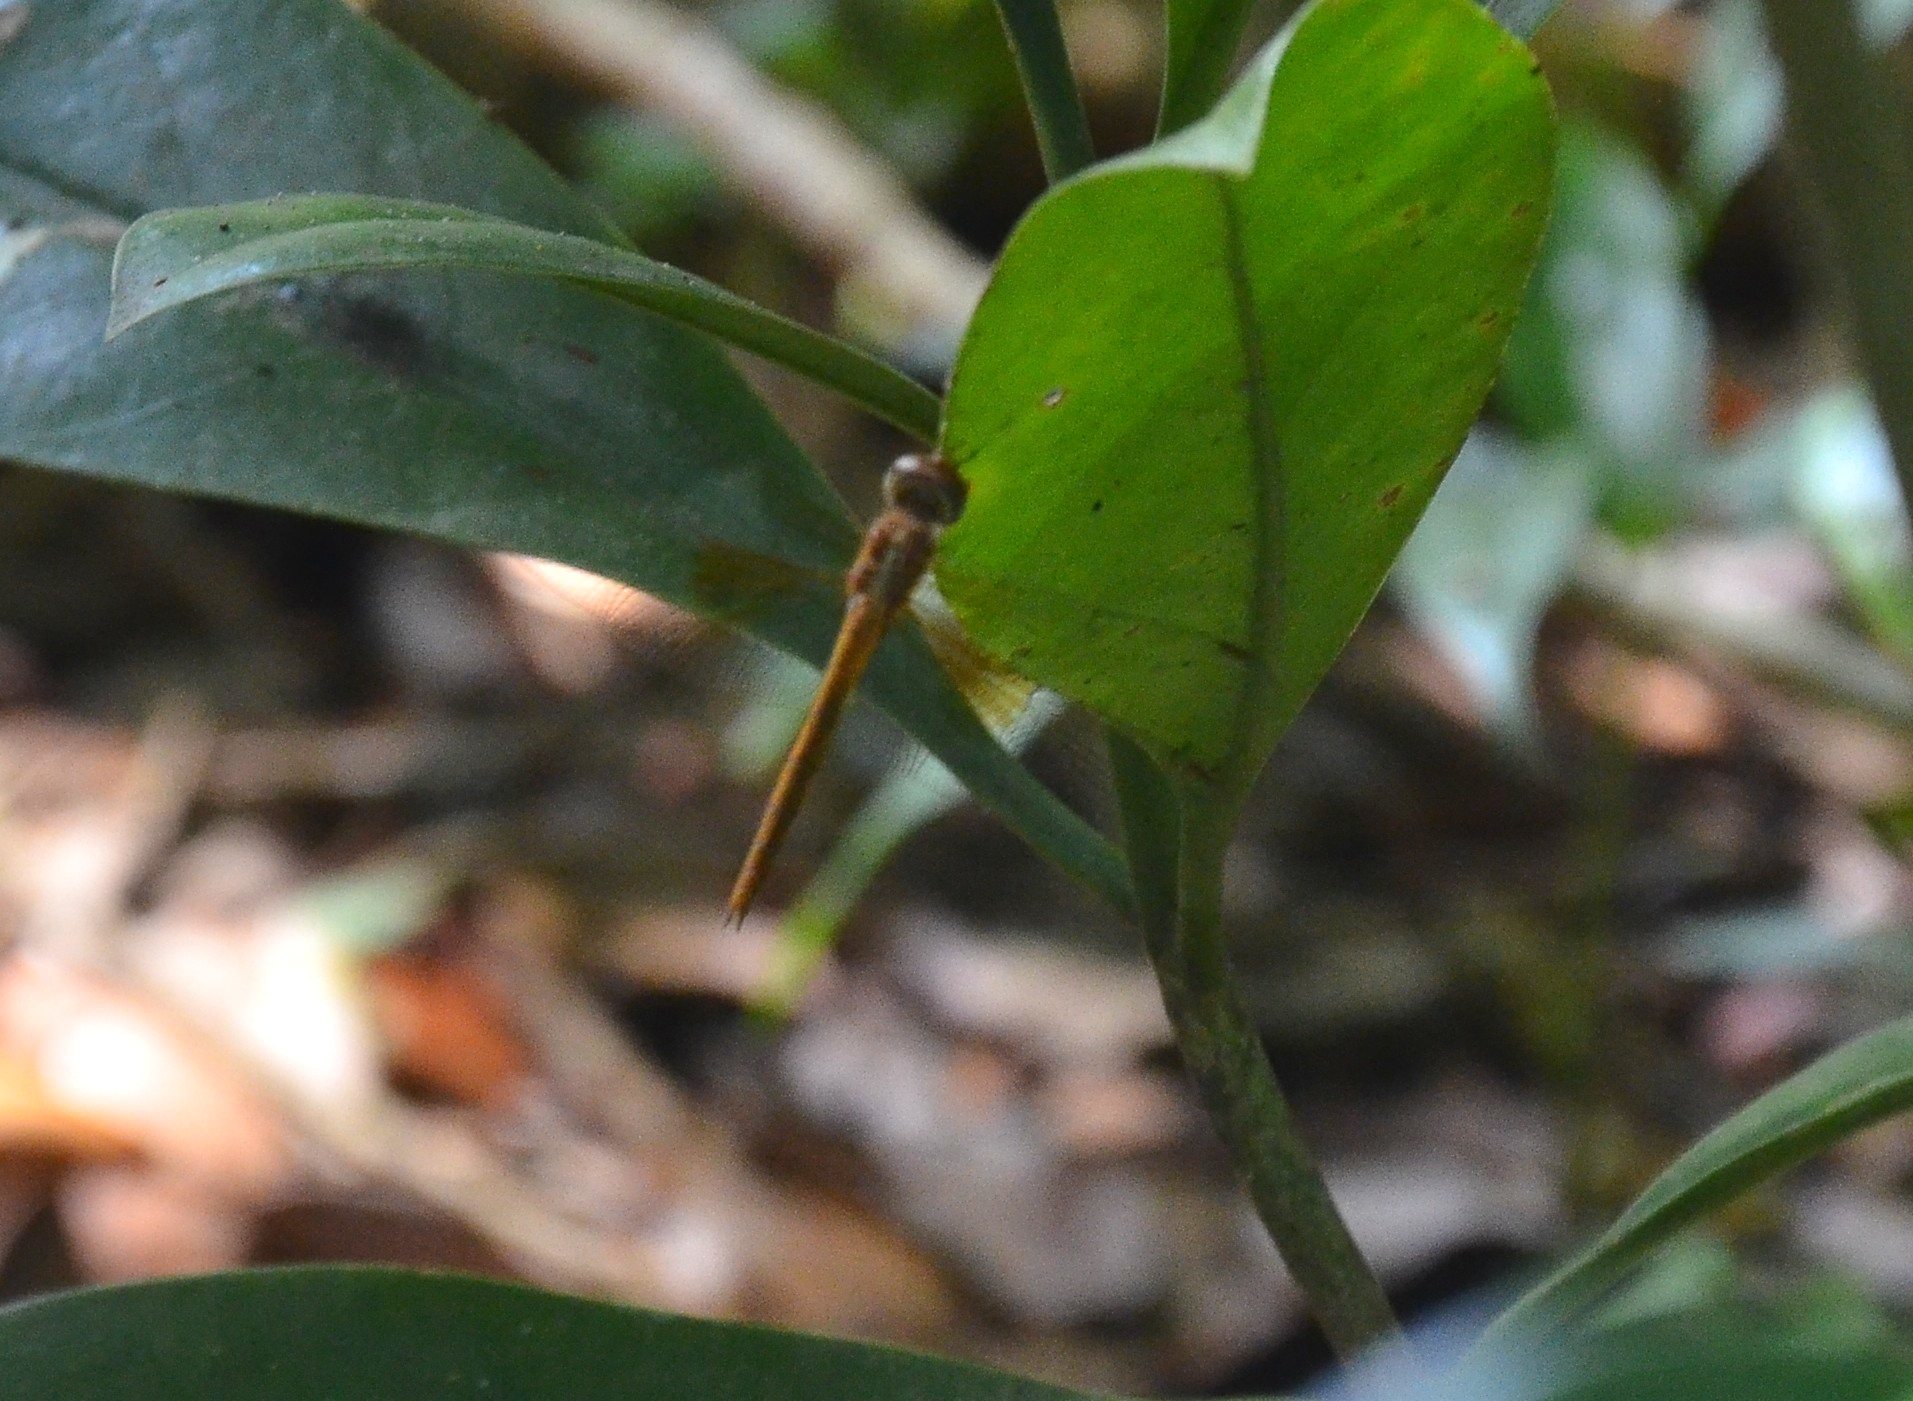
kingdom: Animalia
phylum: Arthropoda
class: Insecta
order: Odonata
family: Libellulidae
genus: Tholymis
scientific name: Tholymis tillarga
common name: Coral-tailed cloud wing
